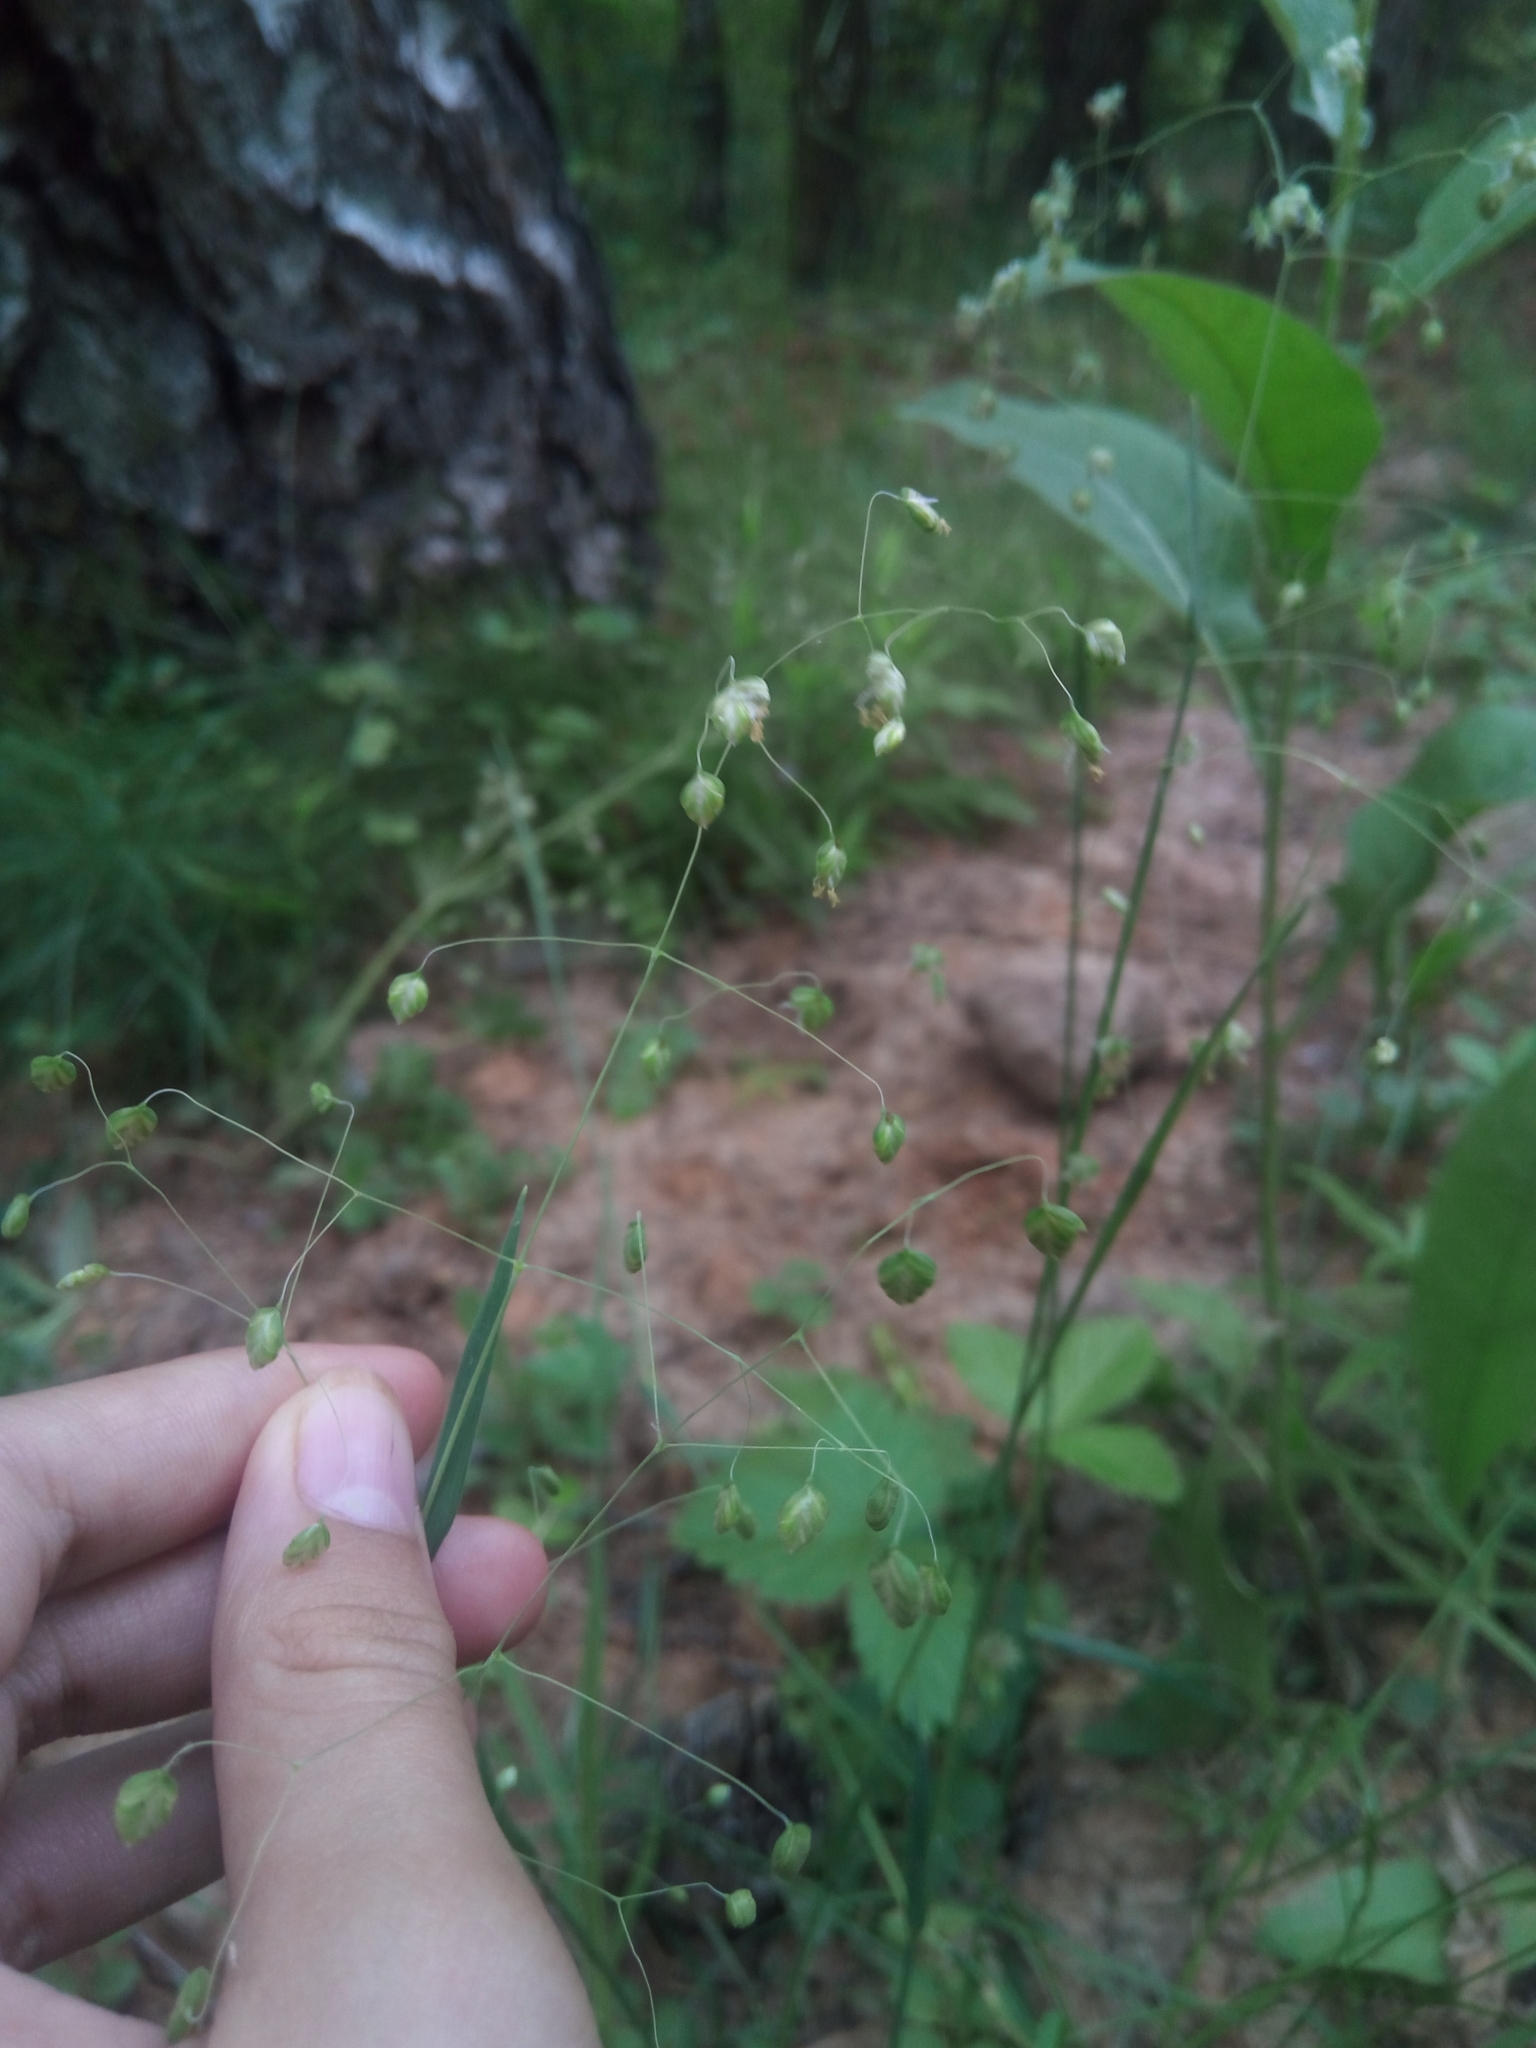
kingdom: Plantae
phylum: Tracheophyta
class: Liliopsida
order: Poales
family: Poaceae
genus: Briza
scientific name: Briza media
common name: Quaking grass
